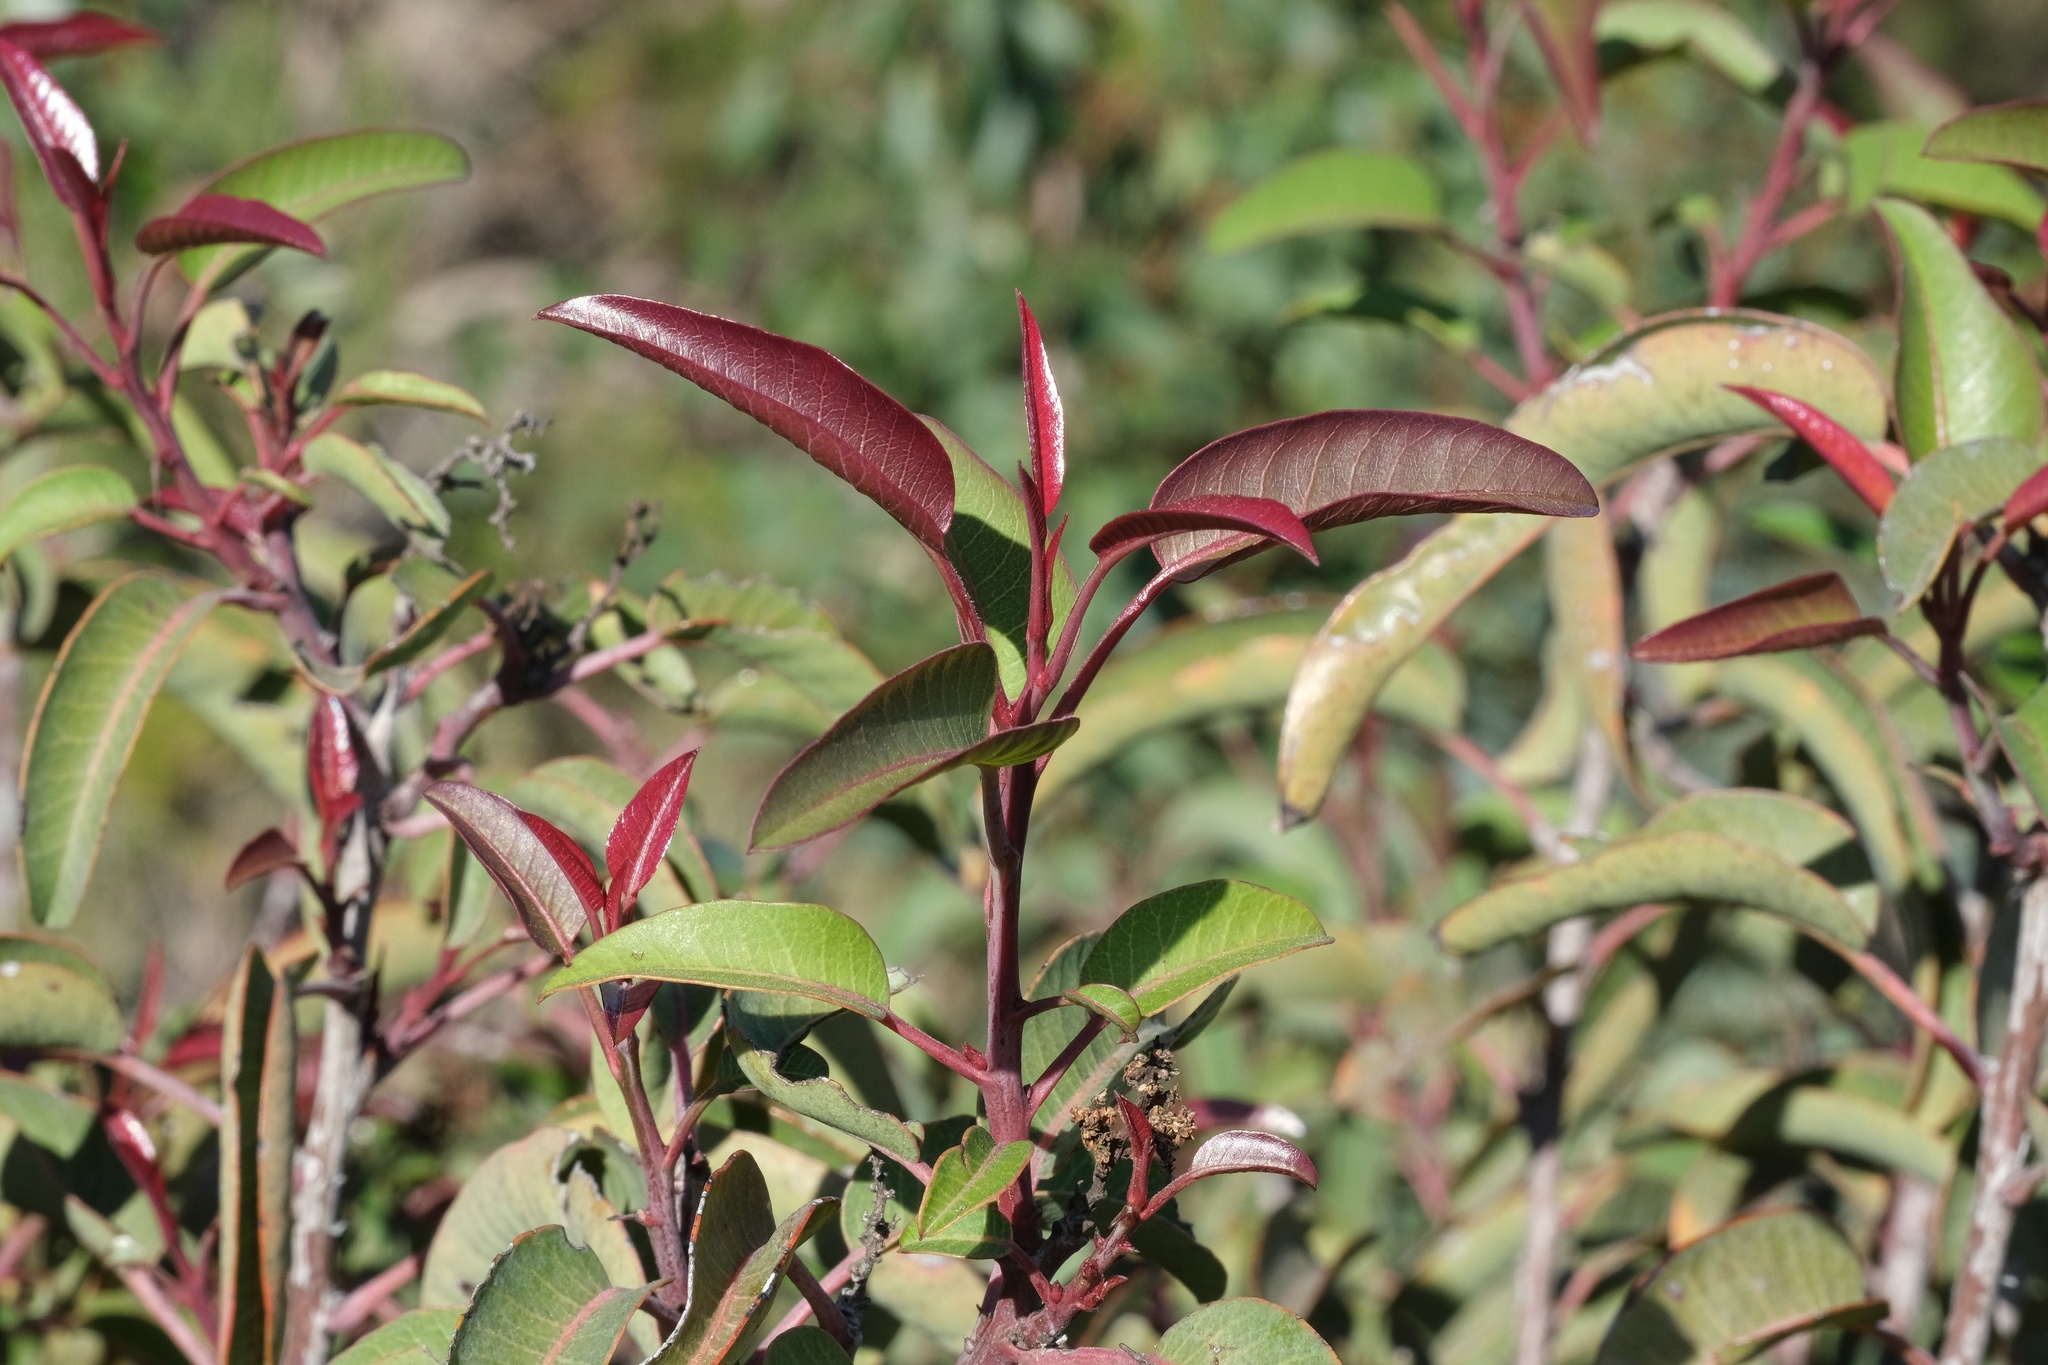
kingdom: Plantae
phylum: Tracheophyta
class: Magnoliopsida
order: Sapindales
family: Anacardiaceae
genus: Malosma
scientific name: Malosma laurina
